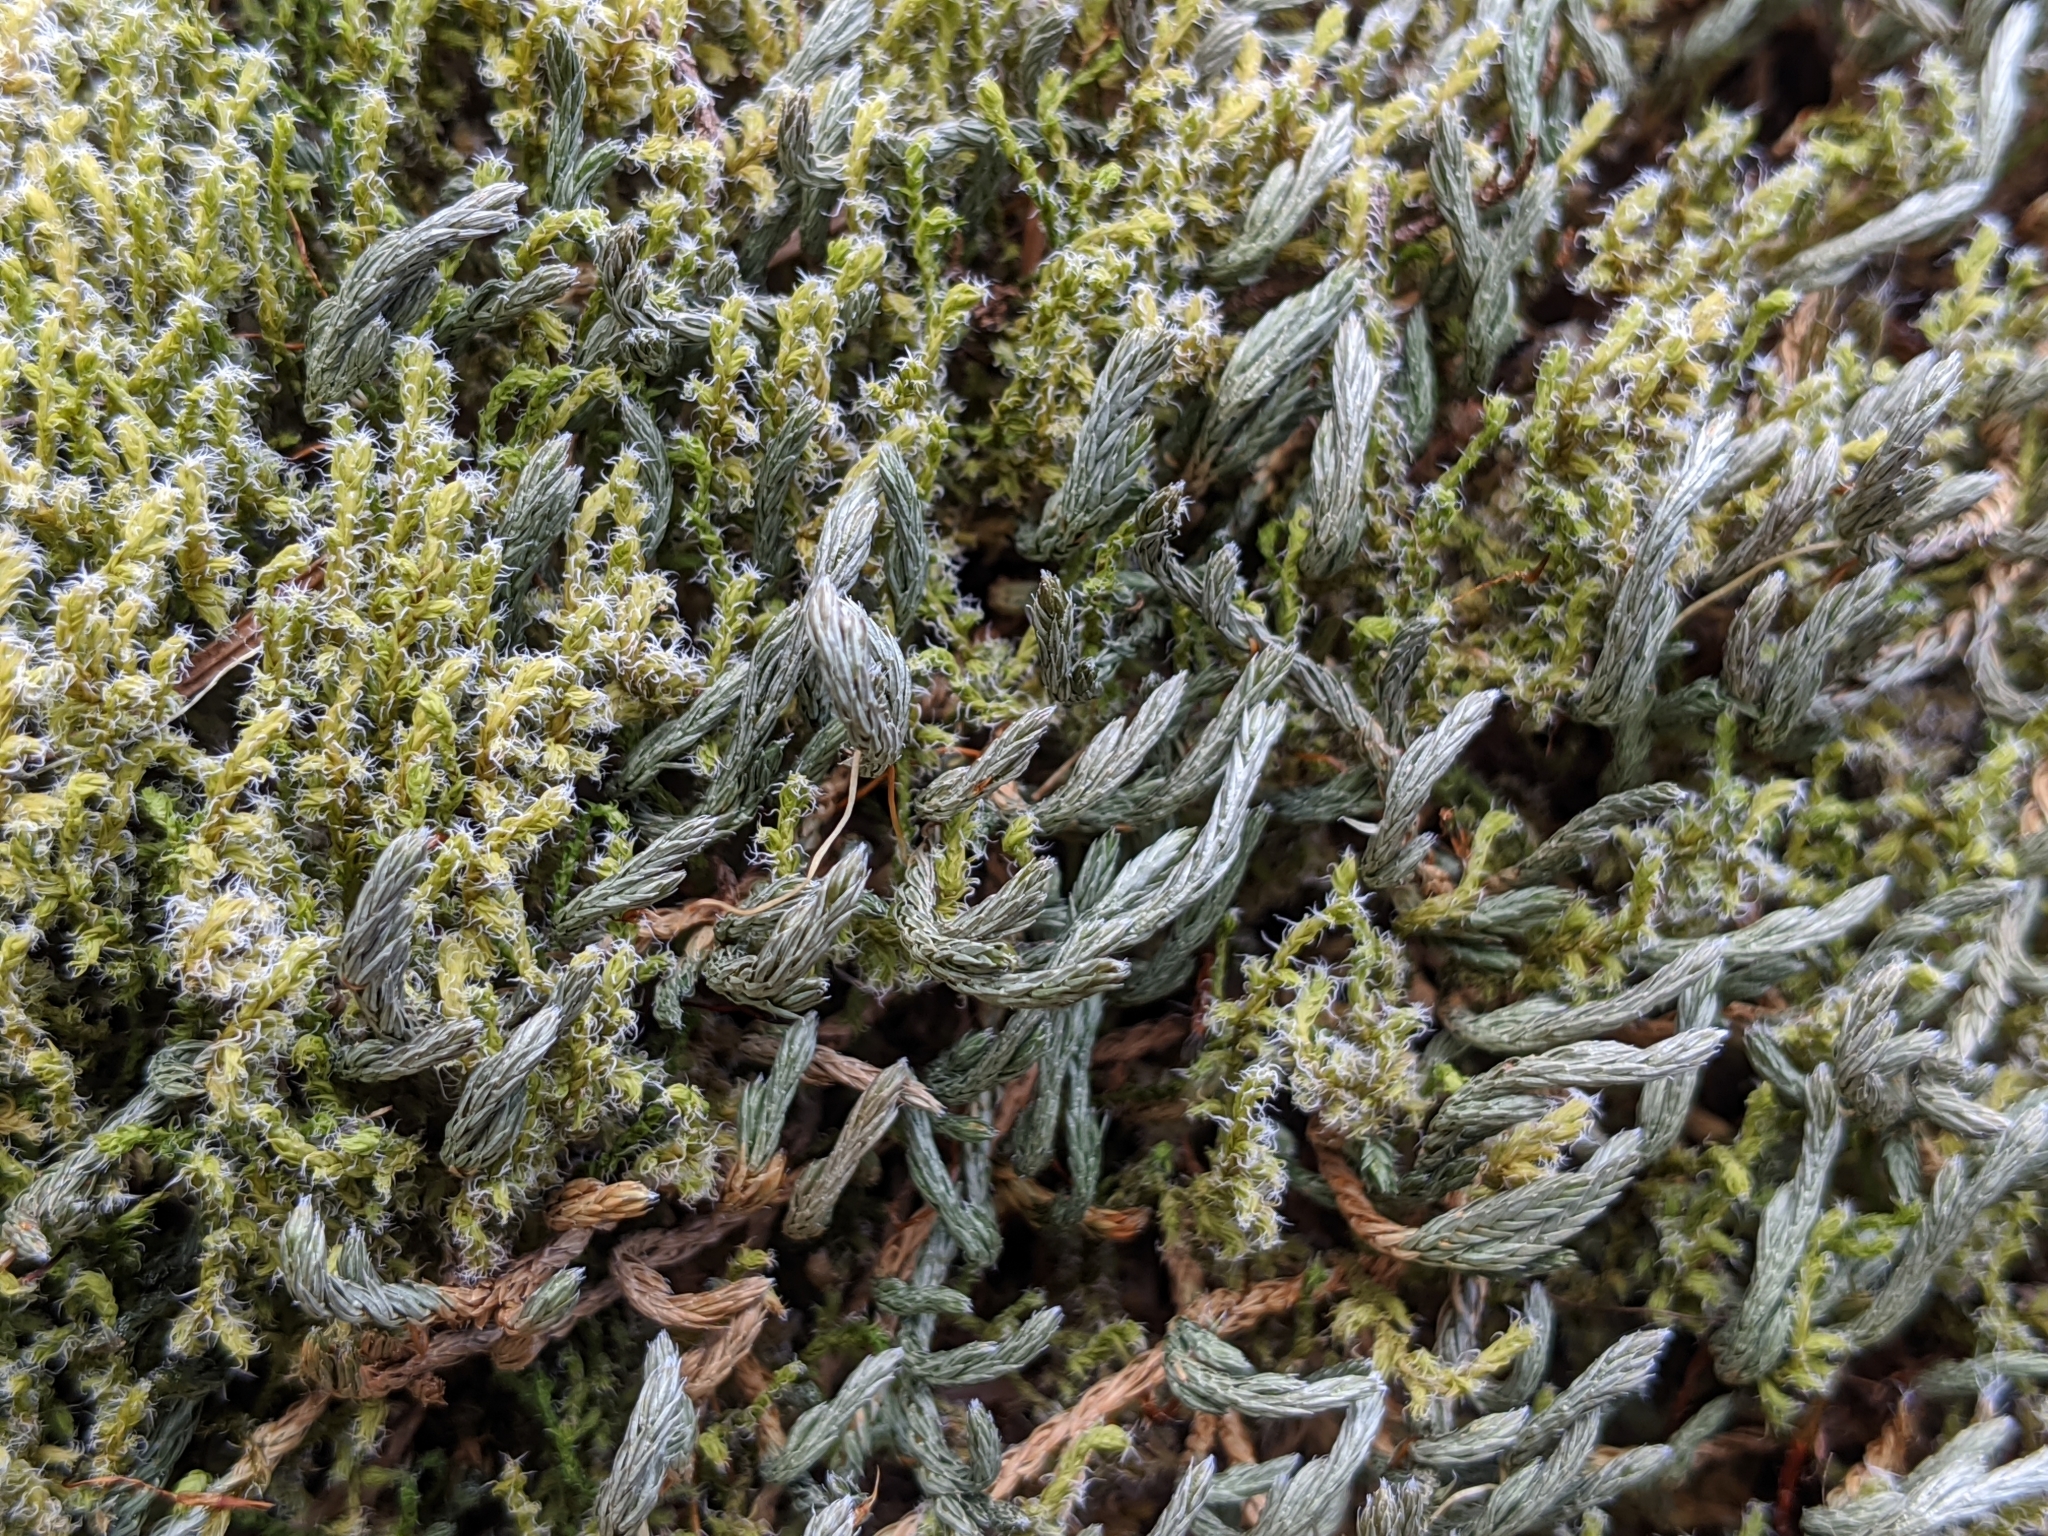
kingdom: Plantae
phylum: Tracheophyta
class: Lycopodiopsida
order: Selaginellales
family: Selaginellaceae
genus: Selaginella
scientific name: Selaginella wallacei
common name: Wallace's selaginella
